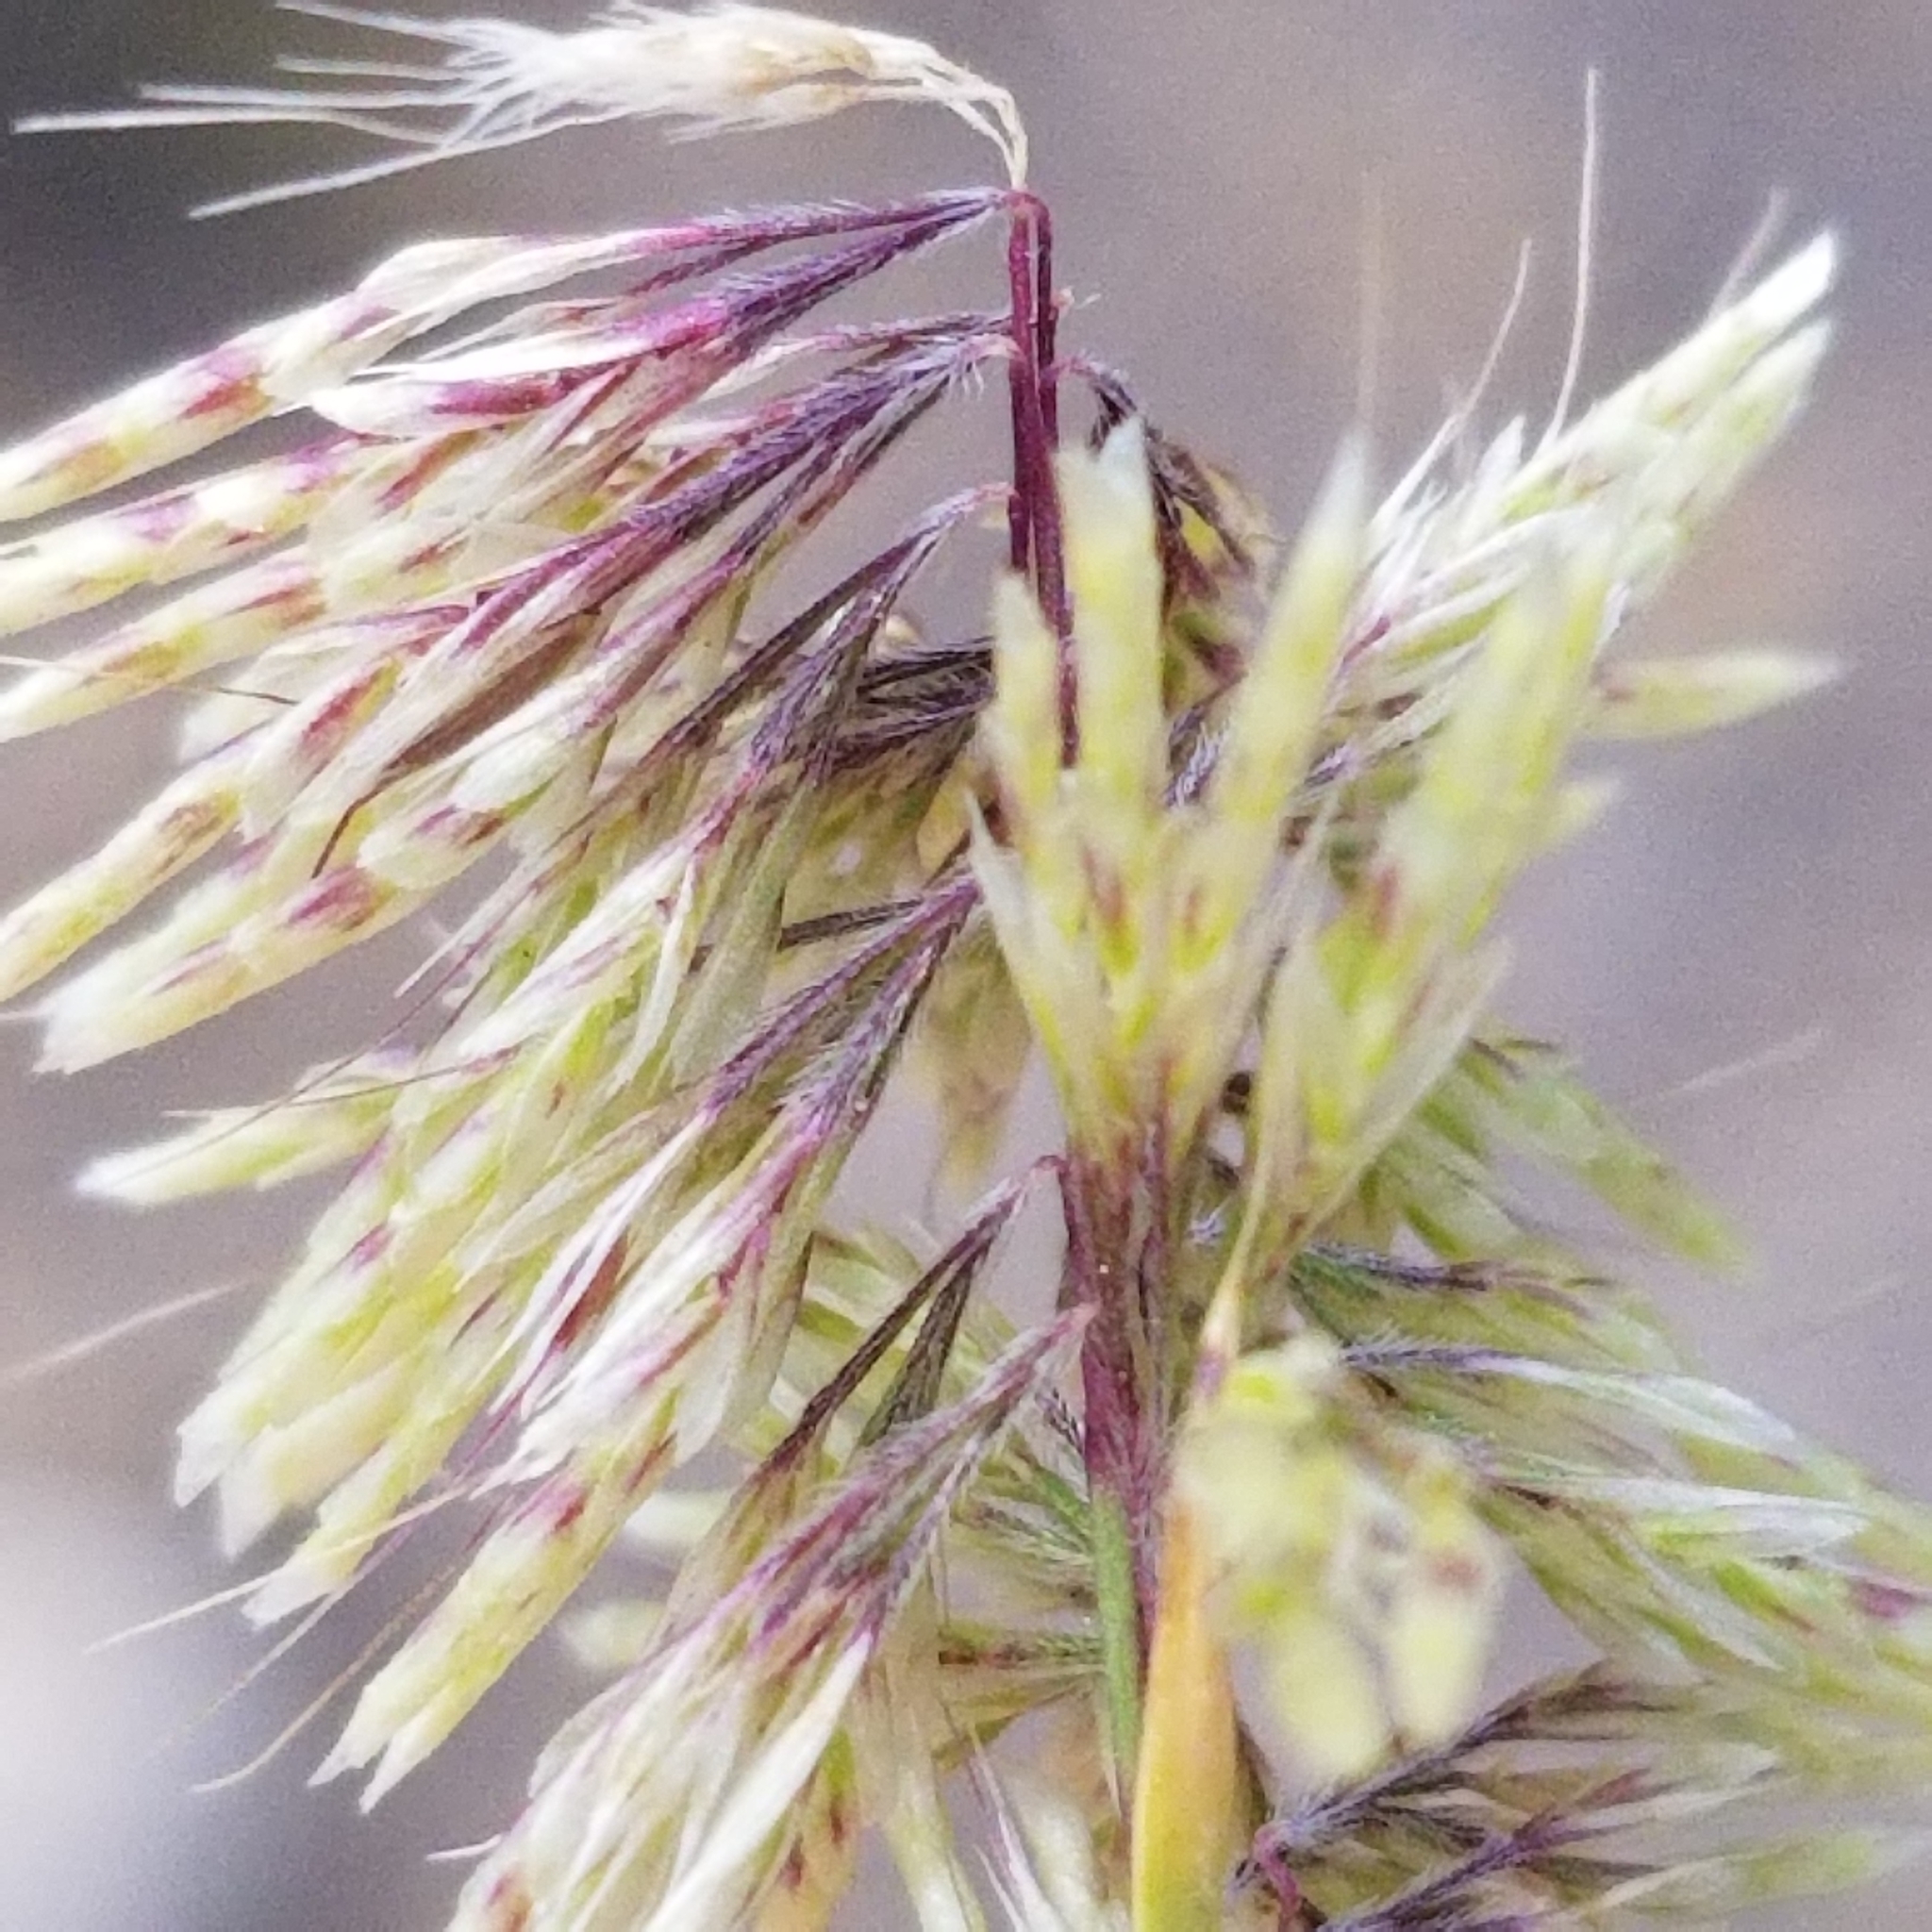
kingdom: Plantae
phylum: Tracheophyta
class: Liliopsida
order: Poales
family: Poaceae
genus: Lamarckia
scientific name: Lamarckia aurea
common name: Golden dog's-tail
